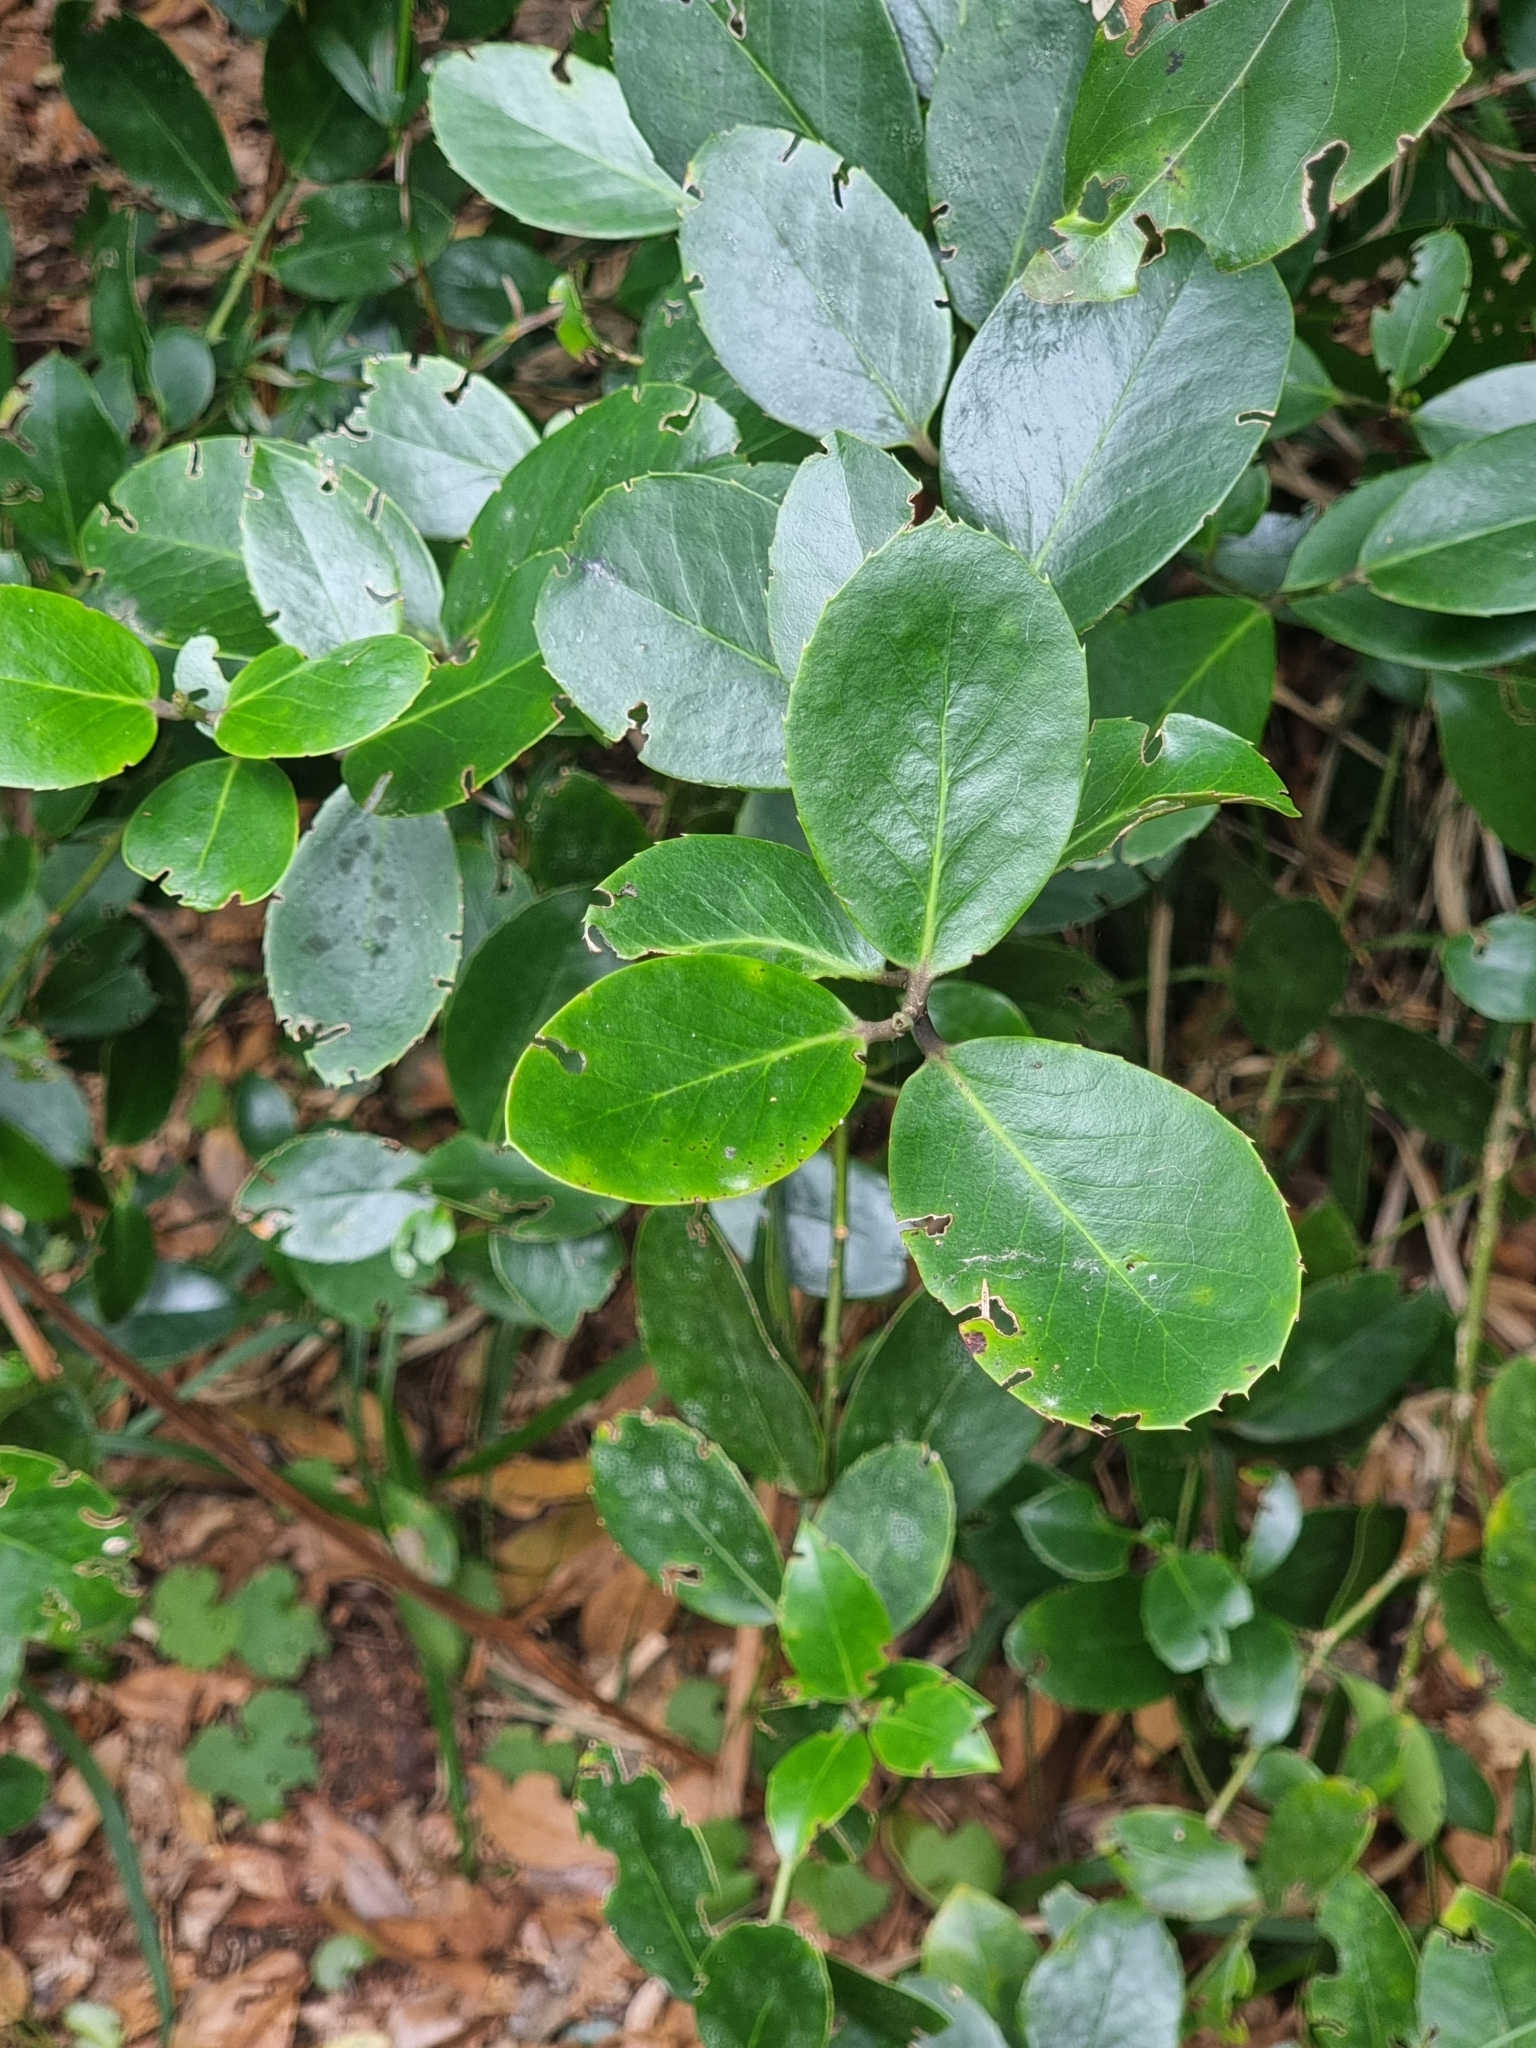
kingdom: Plantae
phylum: Tracheophyta
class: Magnoliopsida
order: Aquifoliales
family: Aquifoliaceae
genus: Ilex
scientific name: Ilex perado
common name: Madeira holly
